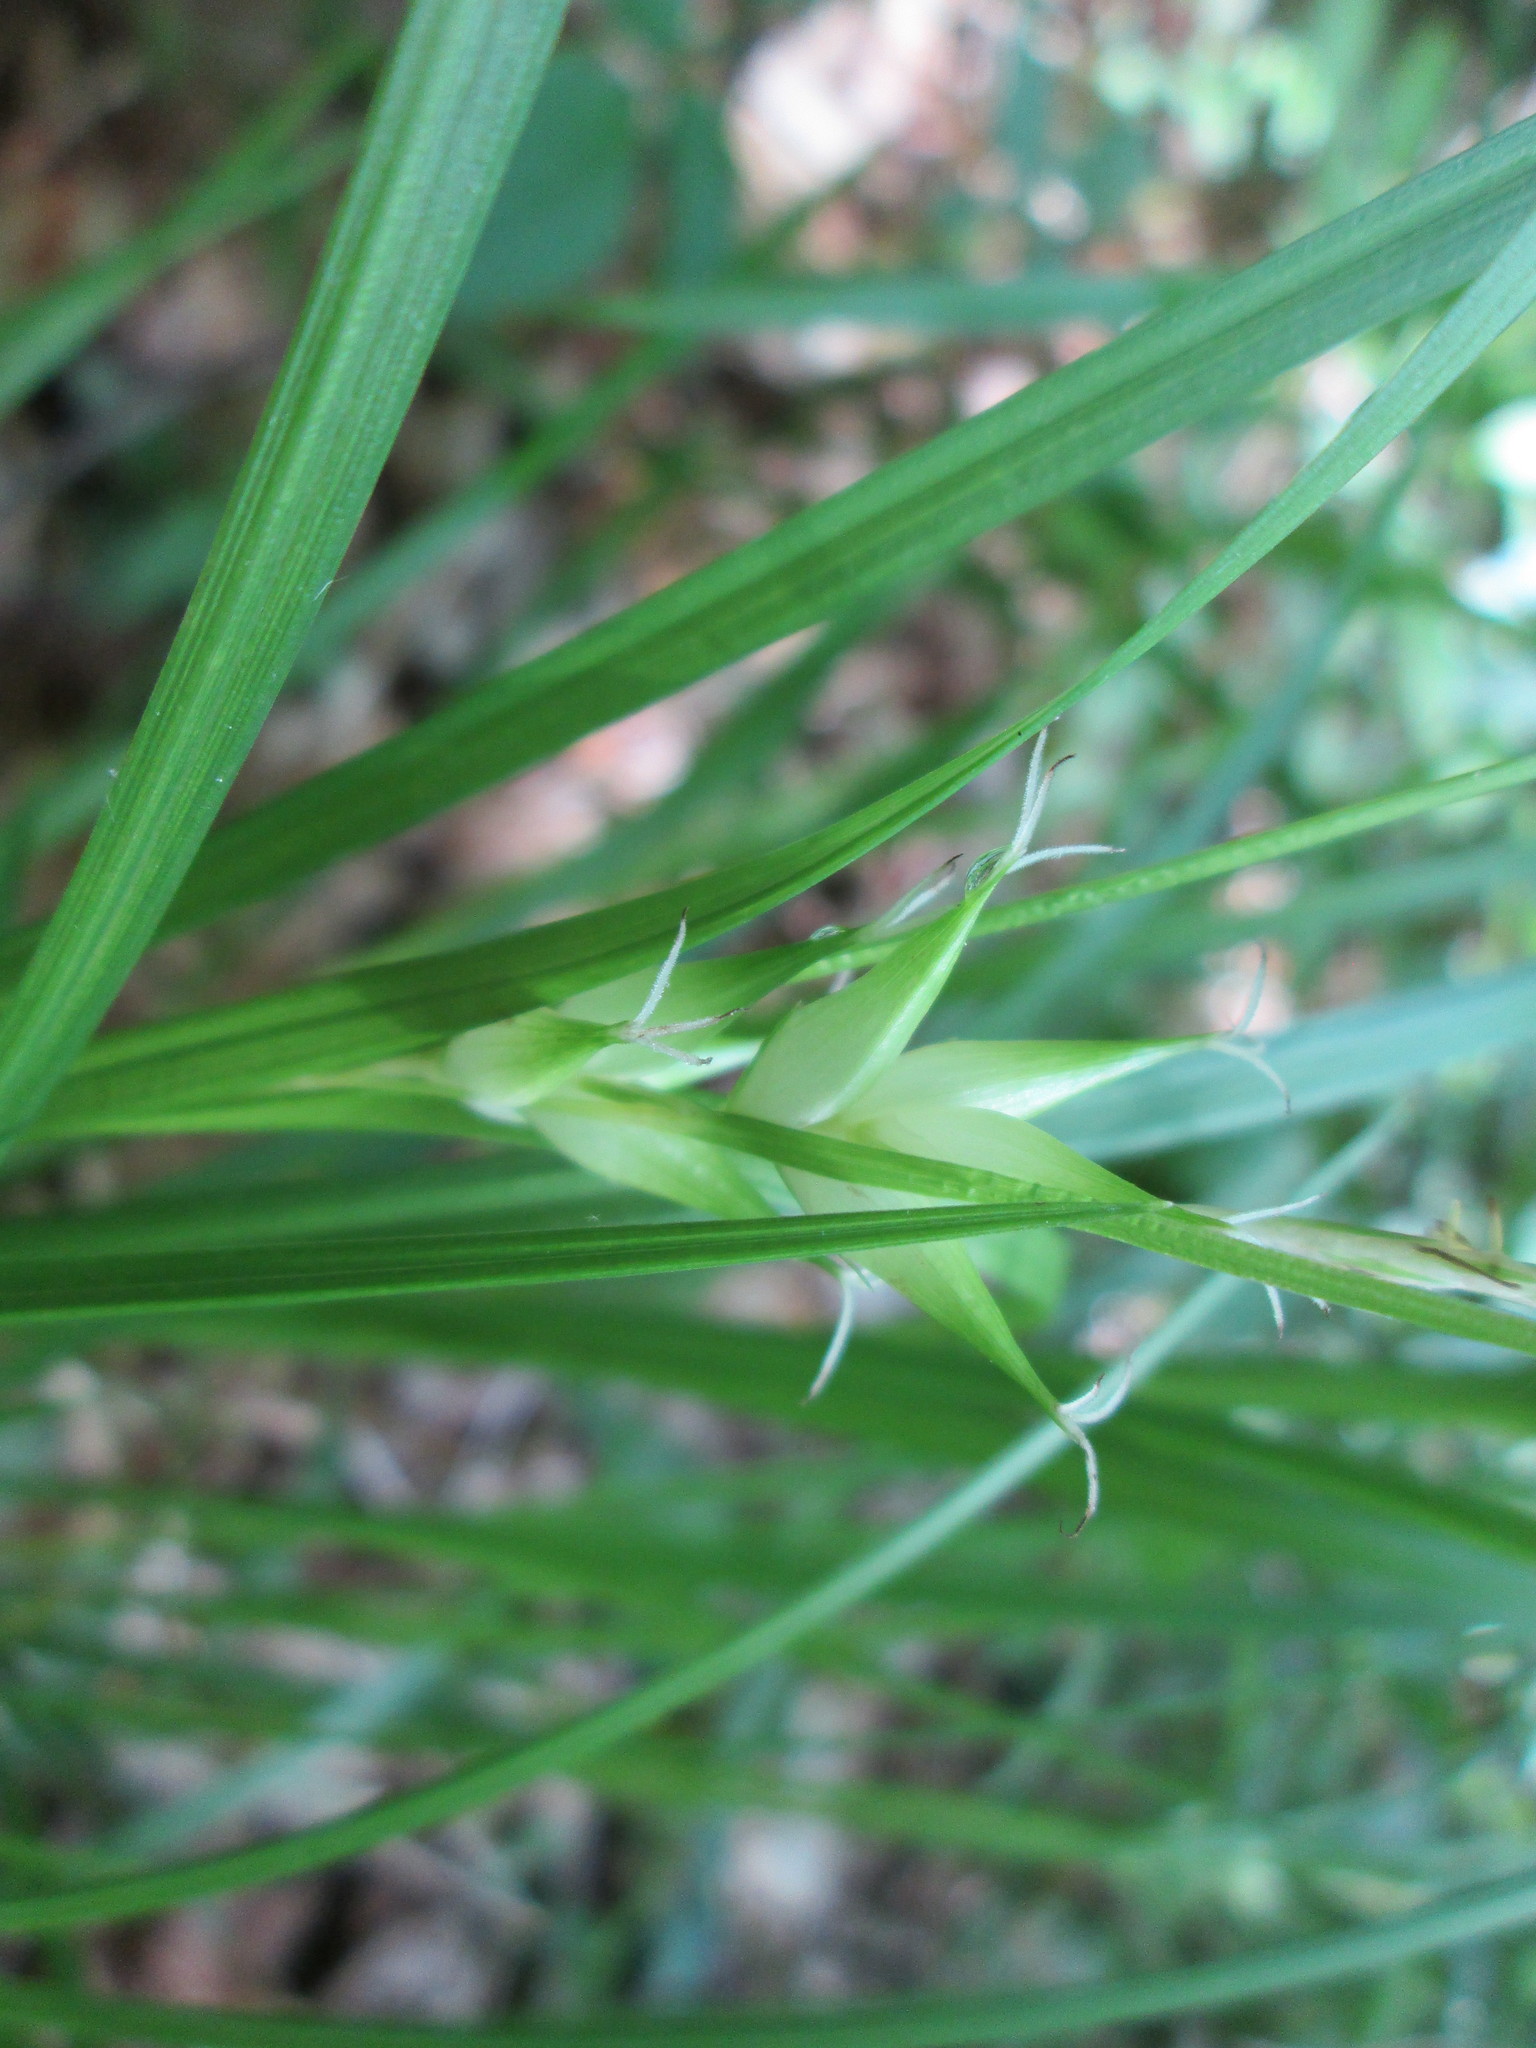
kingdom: Plantae
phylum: Tracheophyta
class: Liliopsida
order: Poales
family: Cyperaceae
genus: Carex
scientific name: Carex intumescens
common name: Greater bladder sedge
